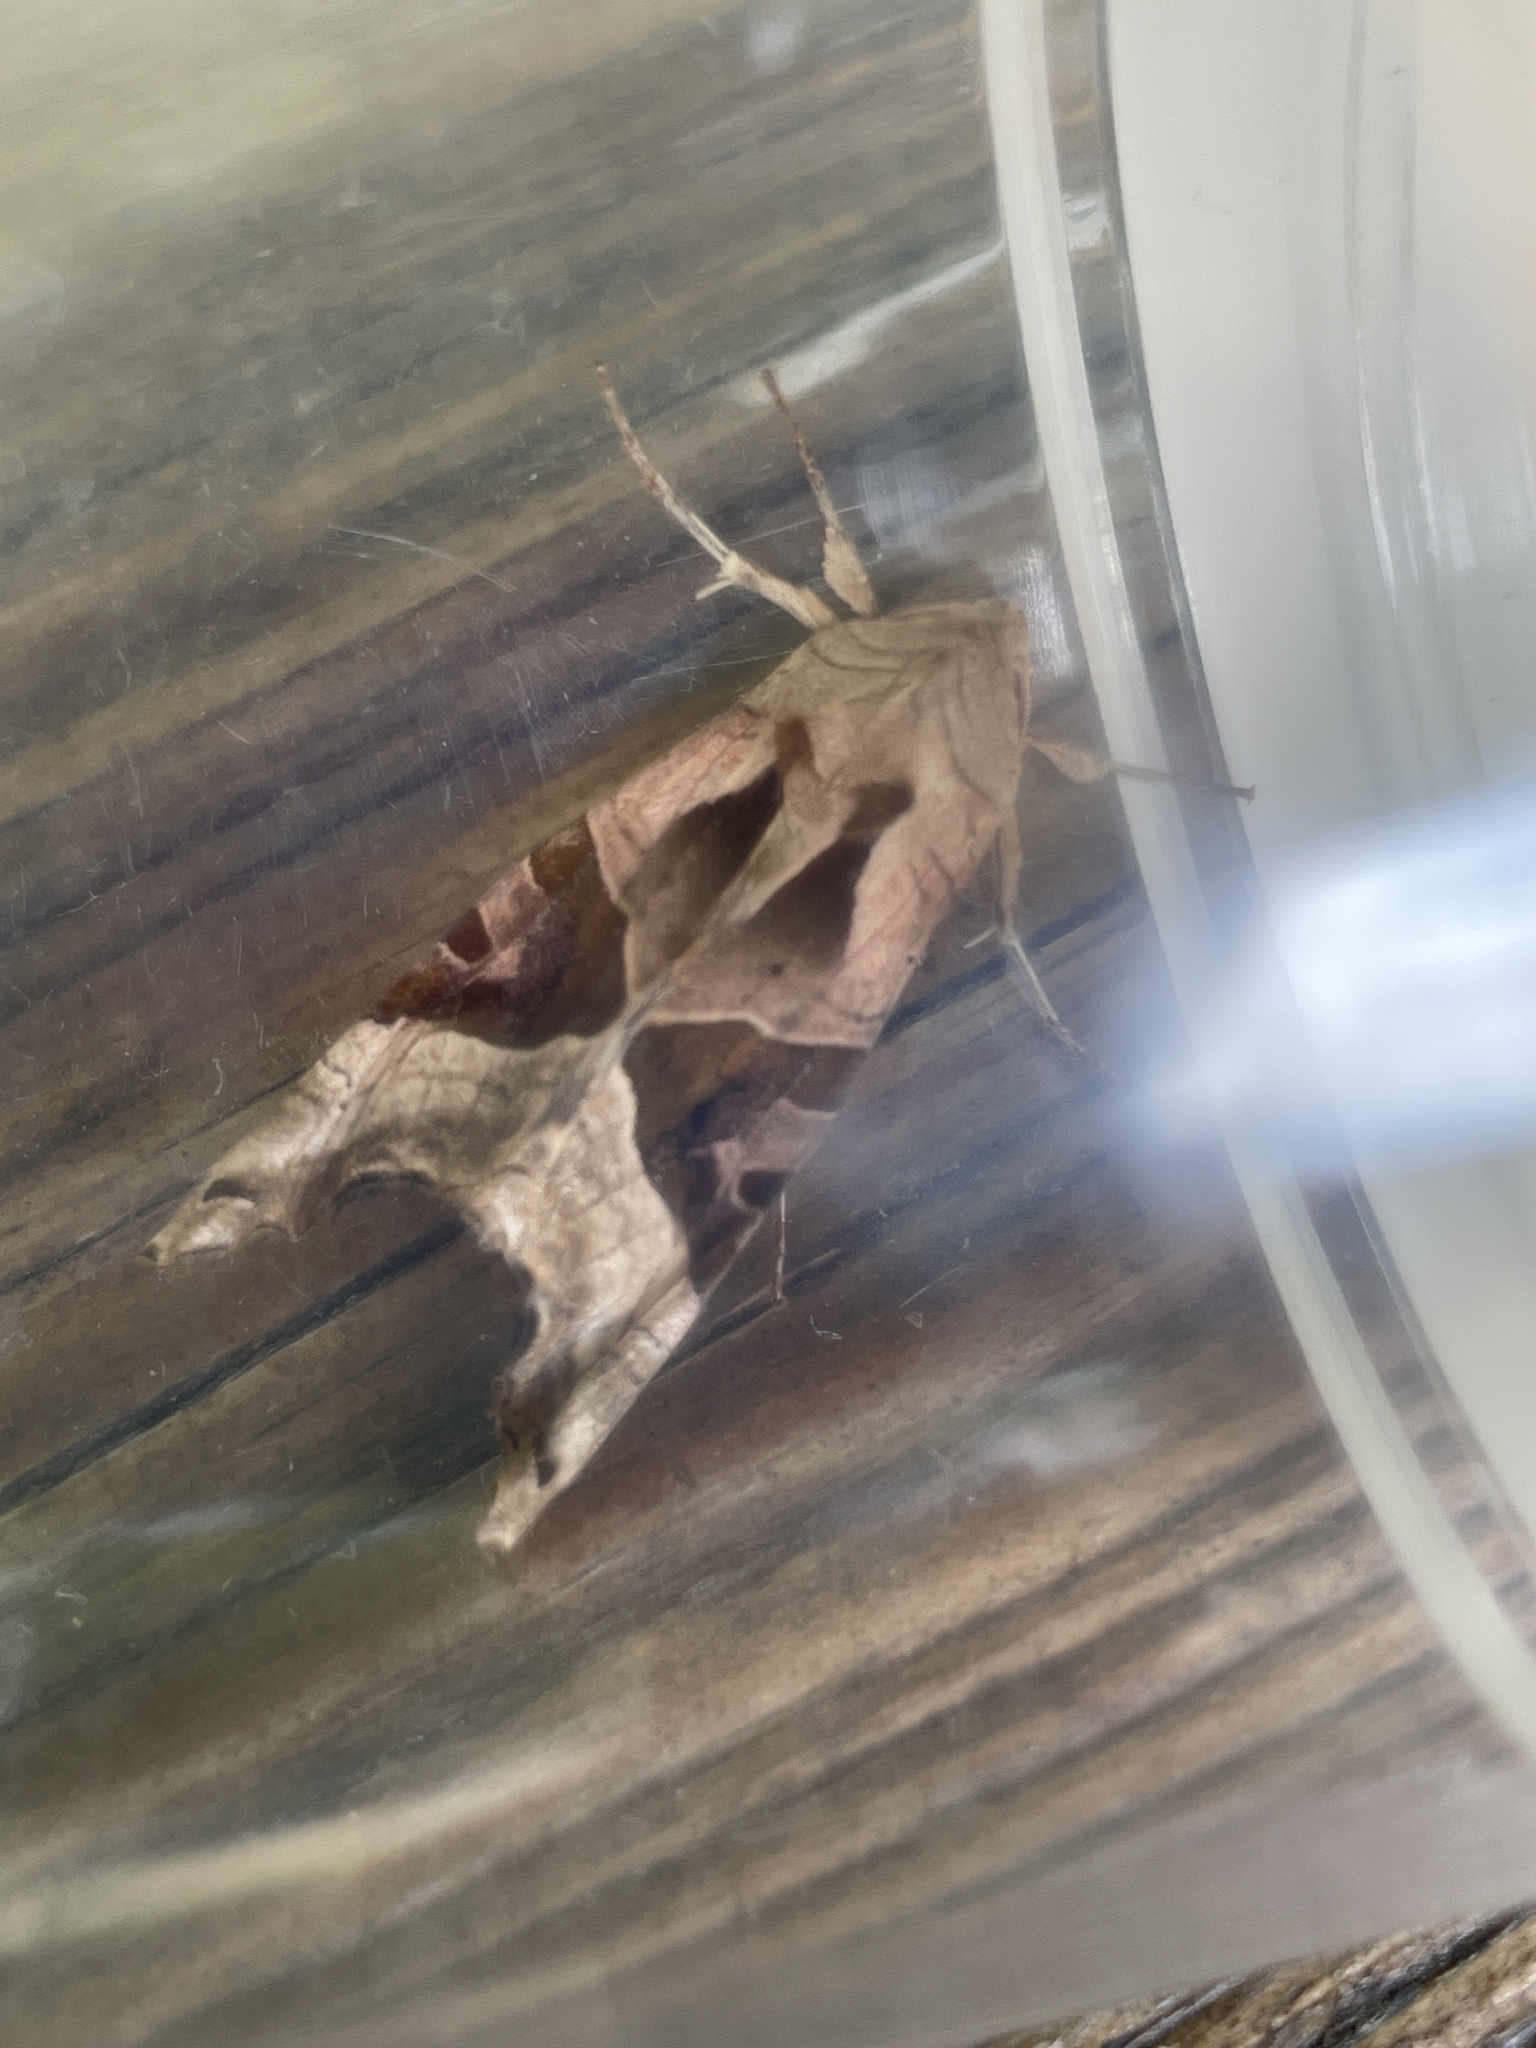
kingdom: Animalia
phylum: Arthropoda
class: Insecta
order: Lepidoptera
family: Noctuidae
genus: Phlogophora
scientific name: Phlogophora meticulosa
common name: Angle shades
